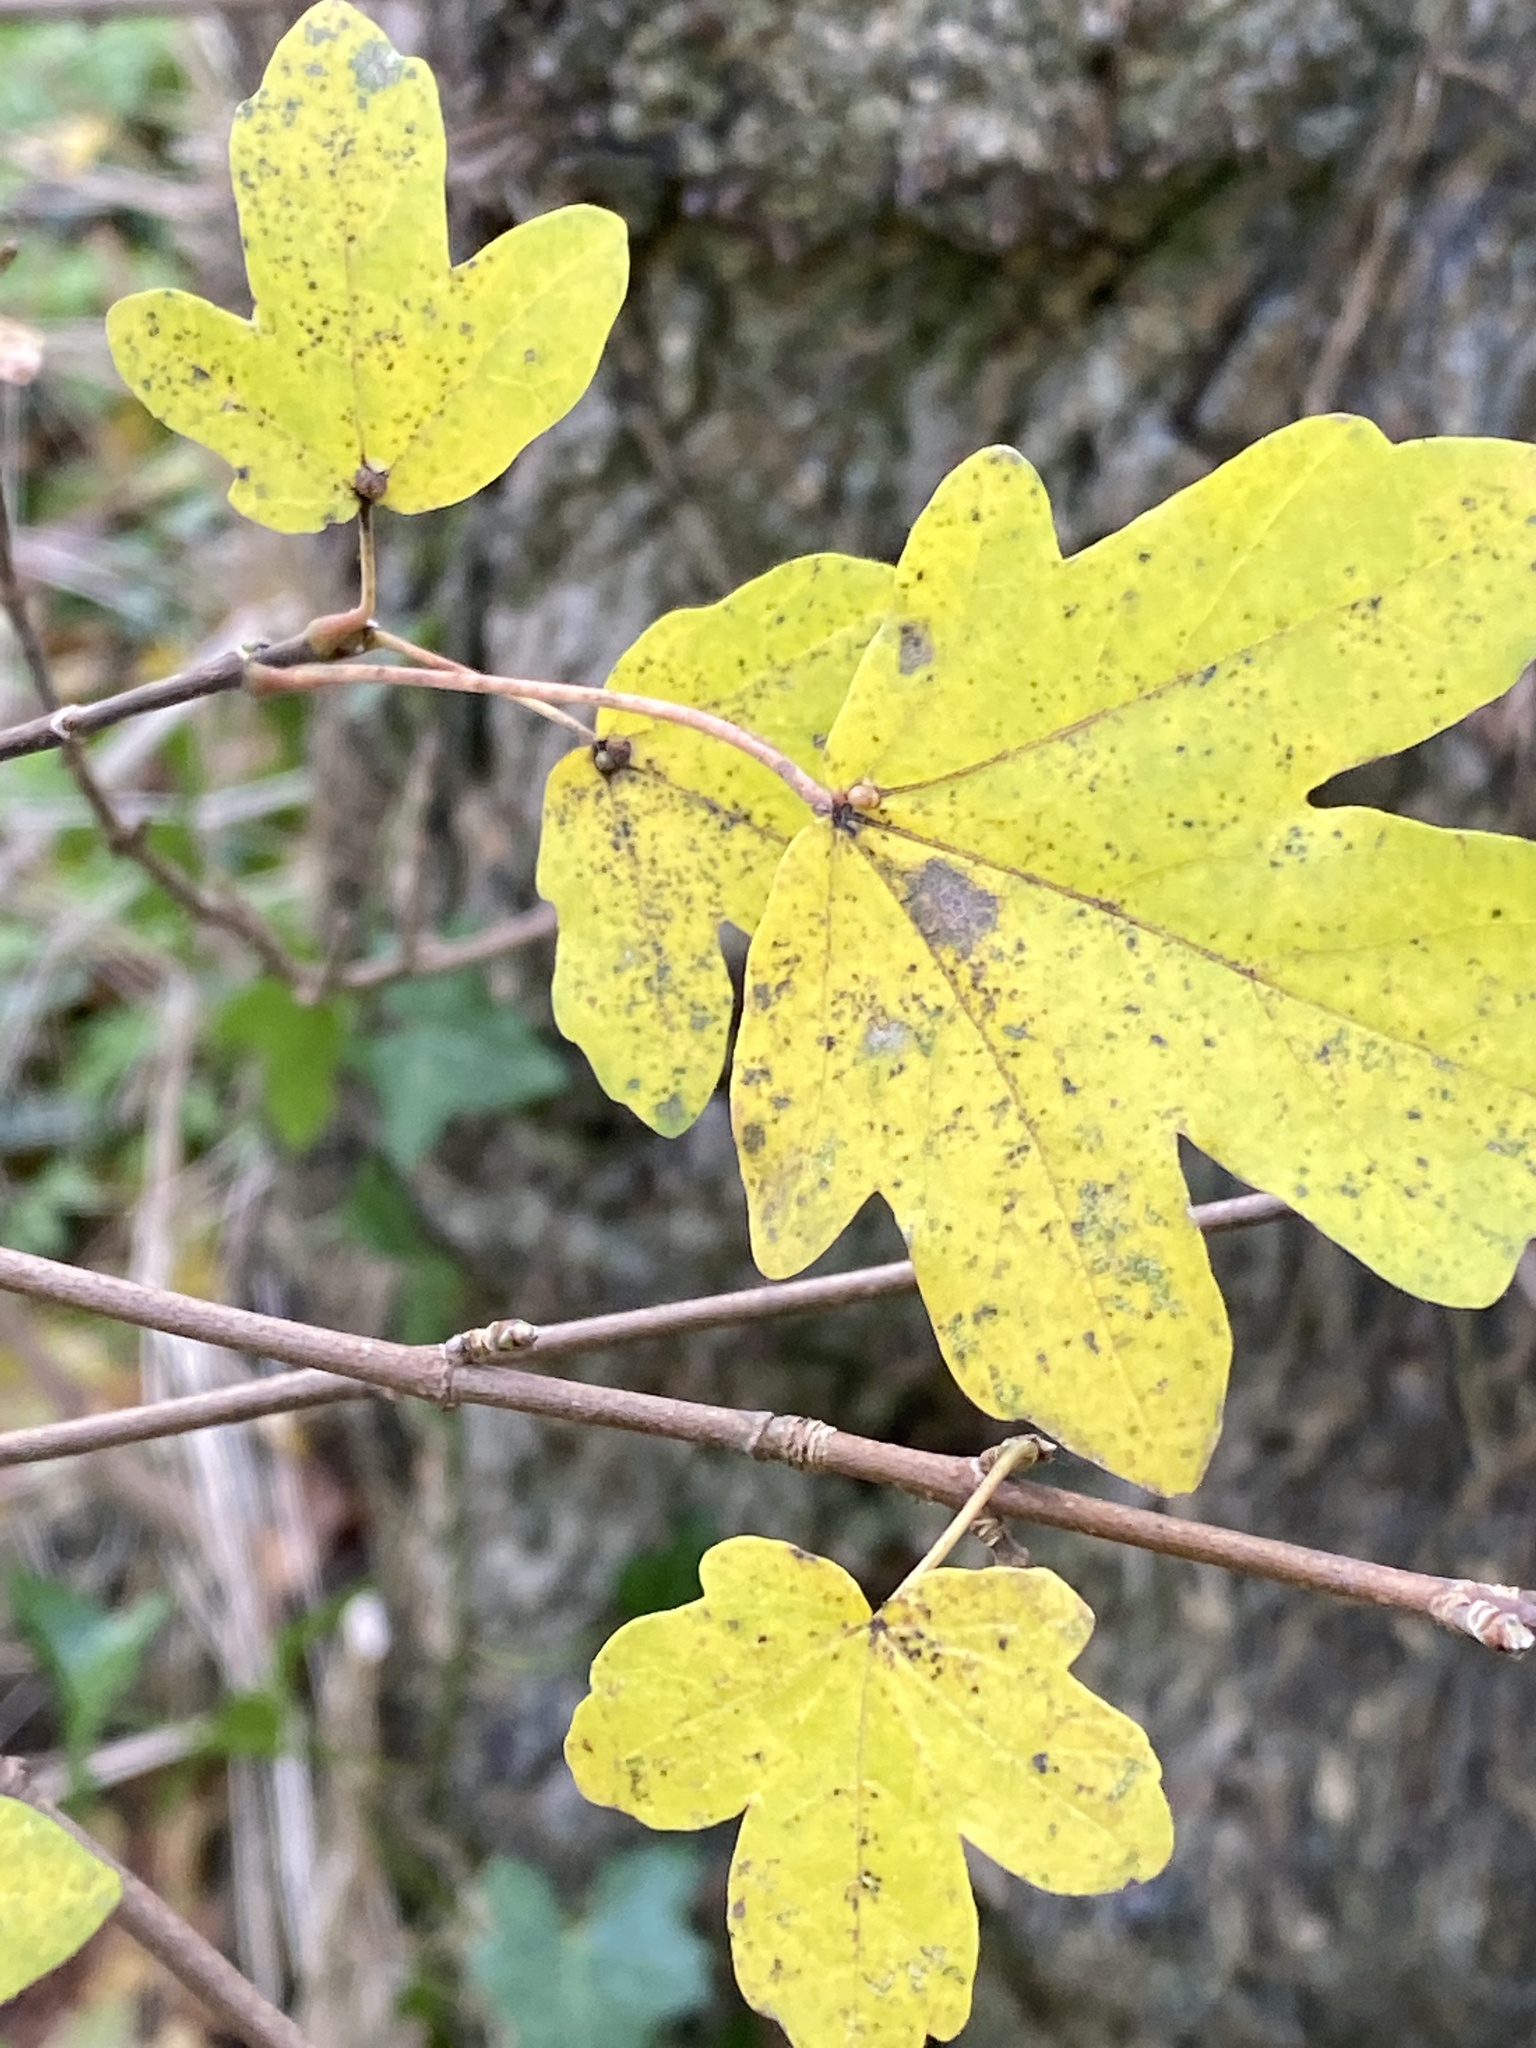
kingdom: Plantae
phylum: Tracheophyta
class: Magnoliopsida
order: Sapindales
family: Sapindaceae
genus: Acer
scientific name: Acer campestre
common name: Field maple
